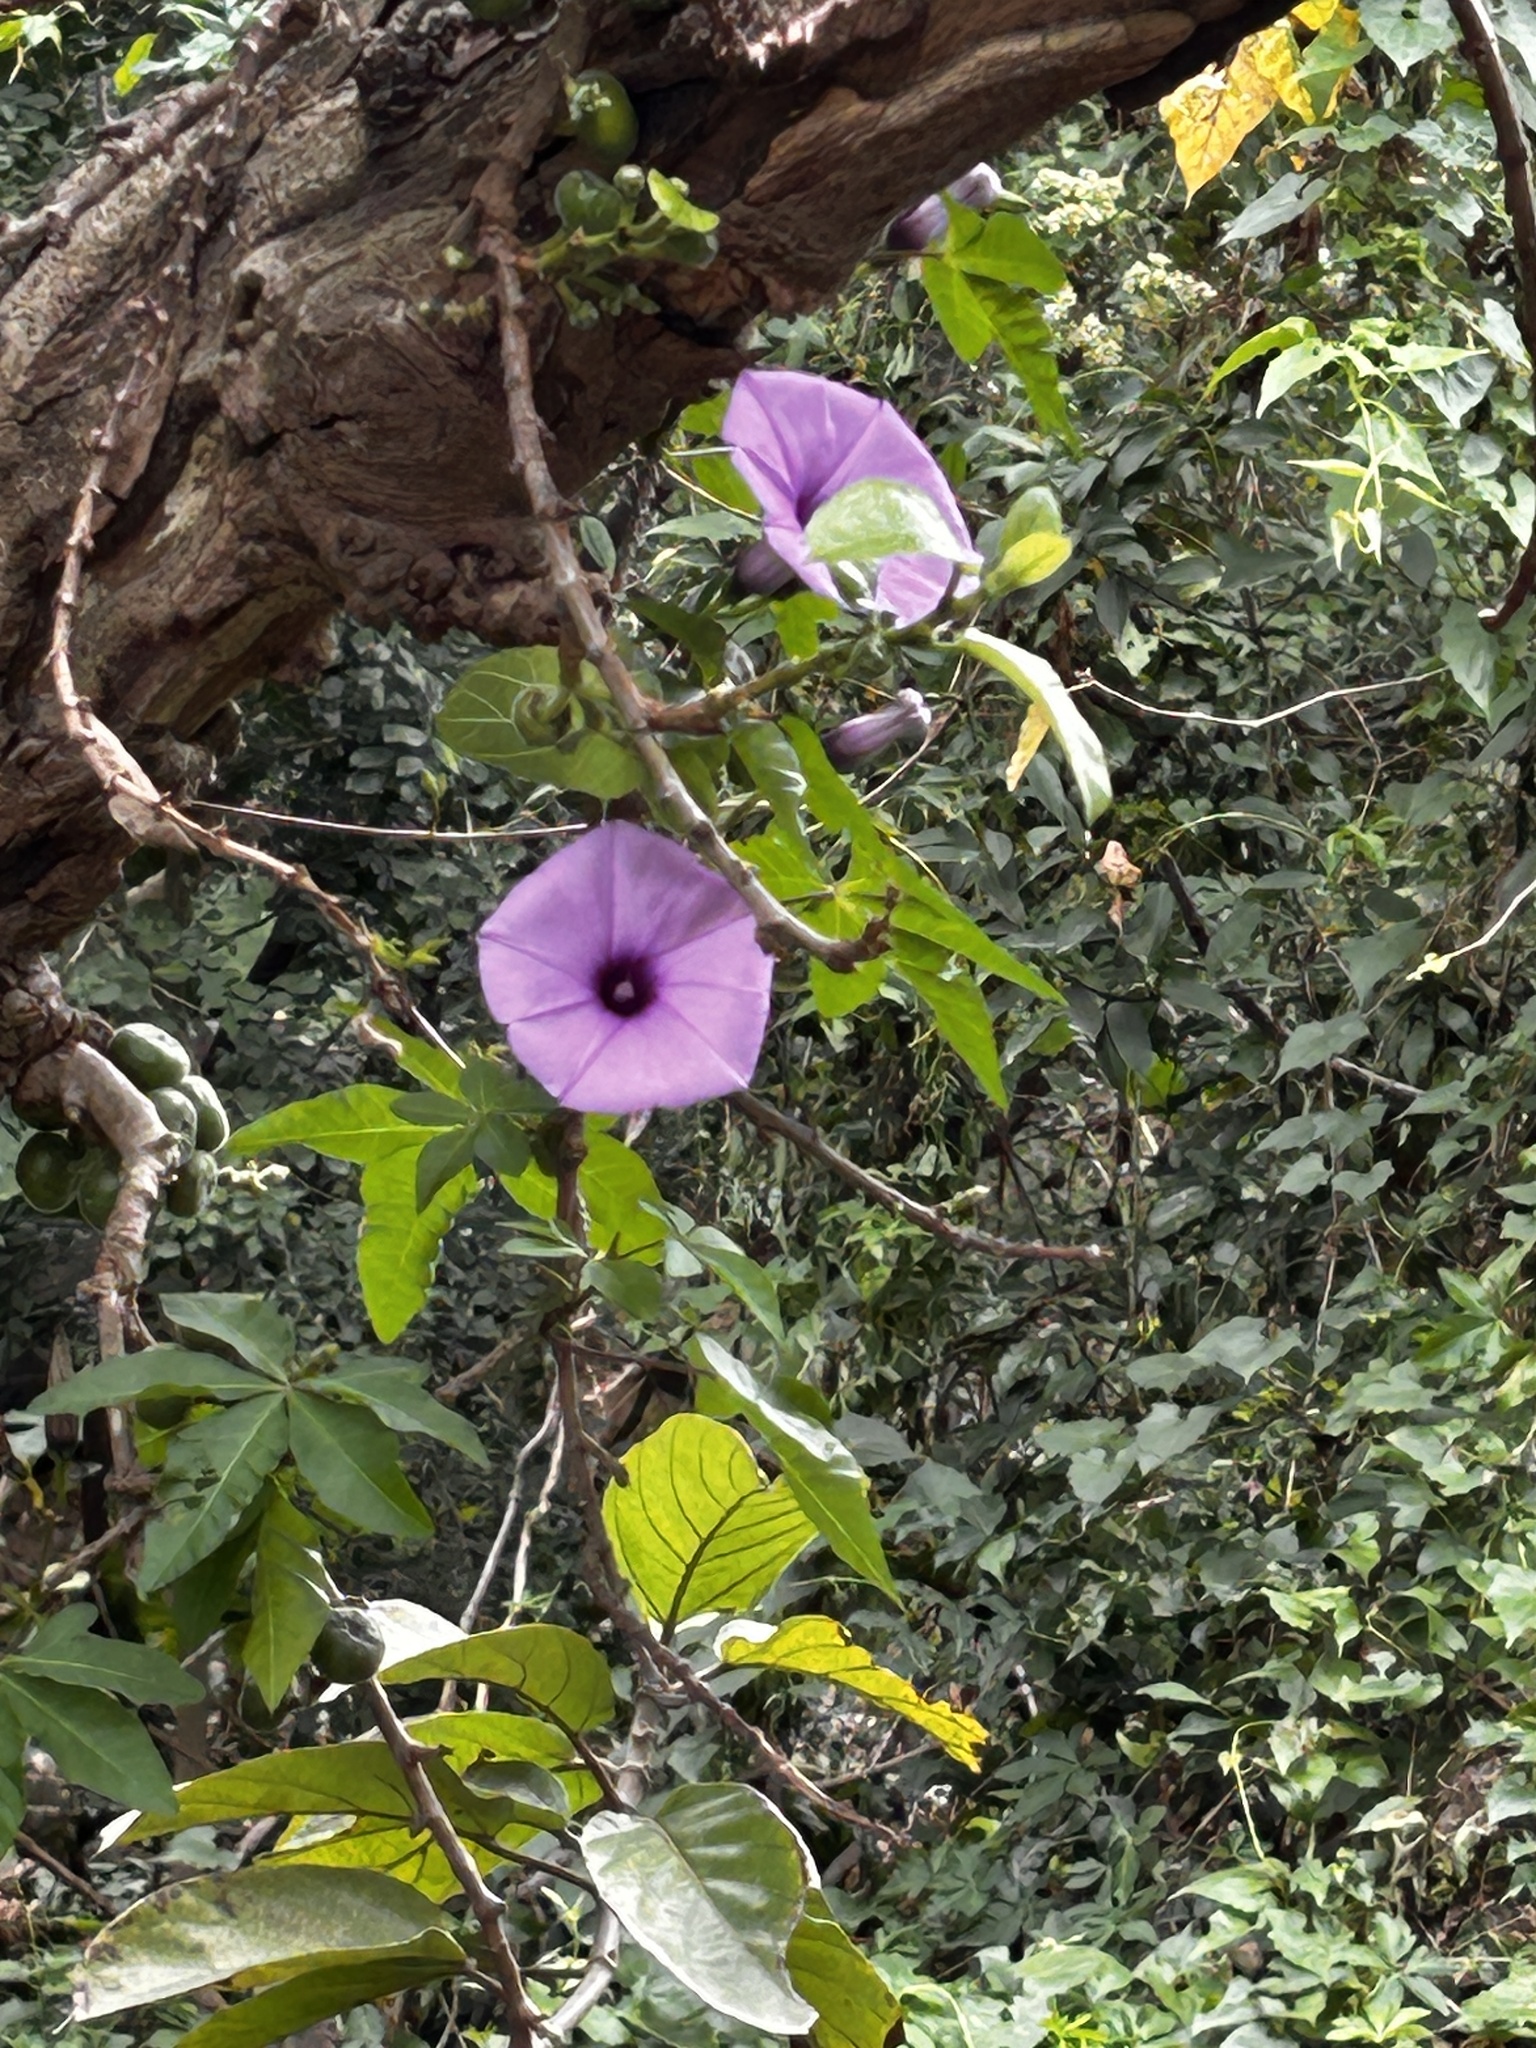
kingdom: Plantae
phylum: Tracheophyta
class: Magnoliopsida
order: Solanales
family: Convolvulaceae
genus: Ipomoea
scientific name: Ipomoea cairica
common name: Mile a minute vine
